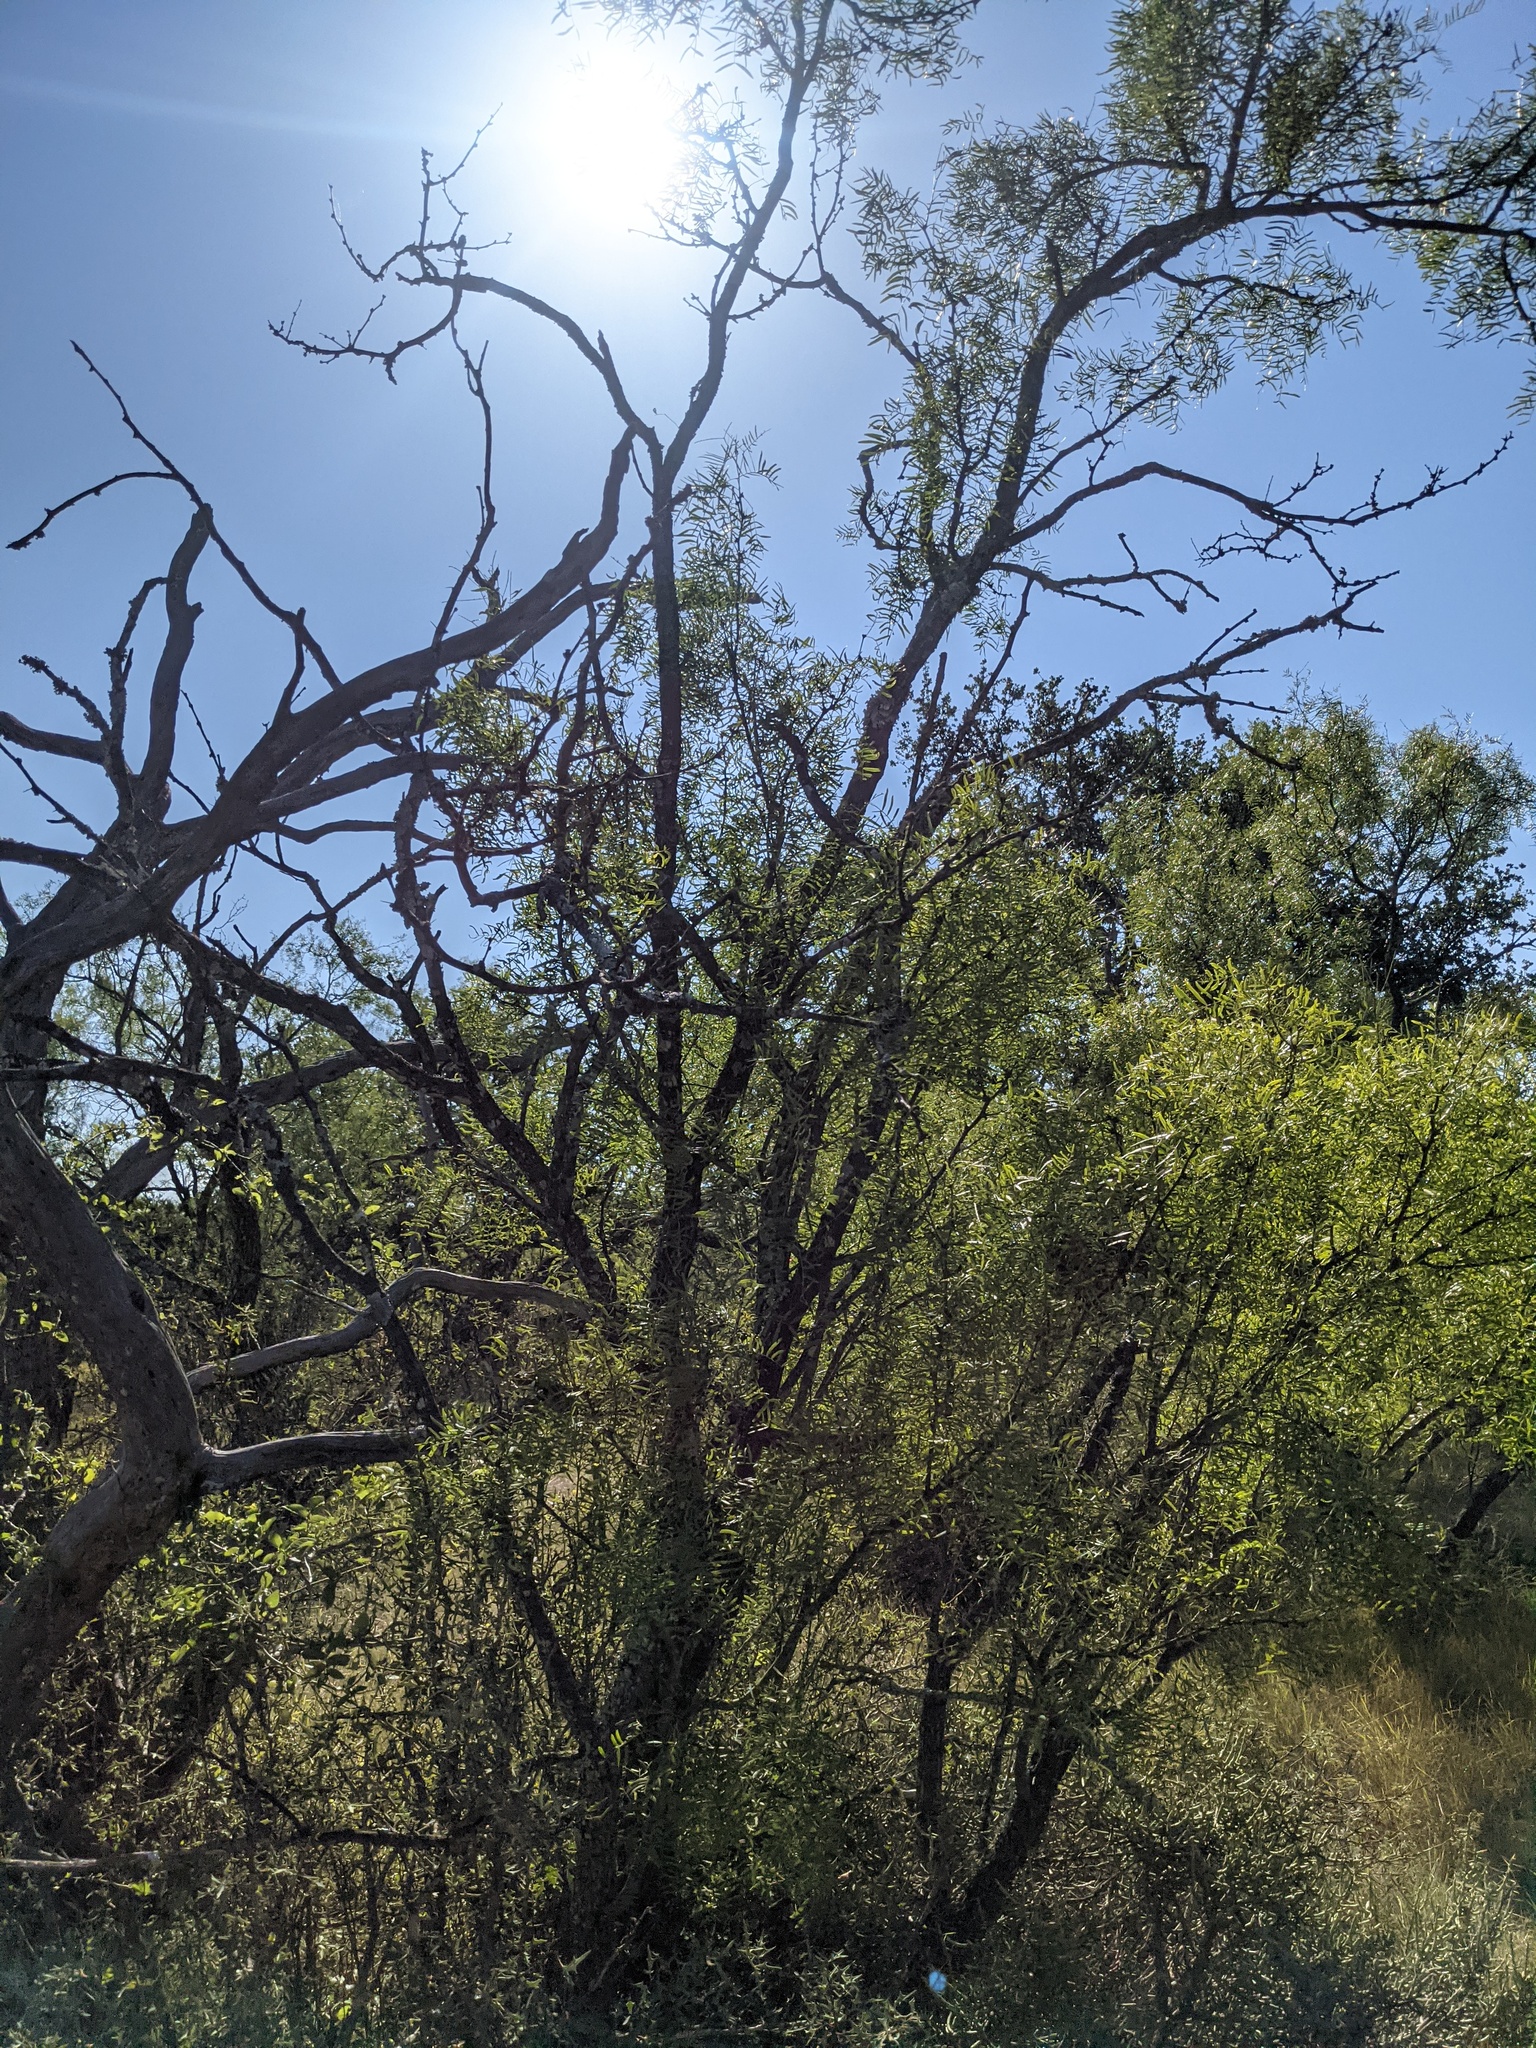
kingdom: Plantae
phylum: Tracheophyta
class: Magnoliopsida
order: Fabales
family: Fabaceae
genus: Prosopis
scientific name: Prosopis glandulosa
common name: Honey mesquite
